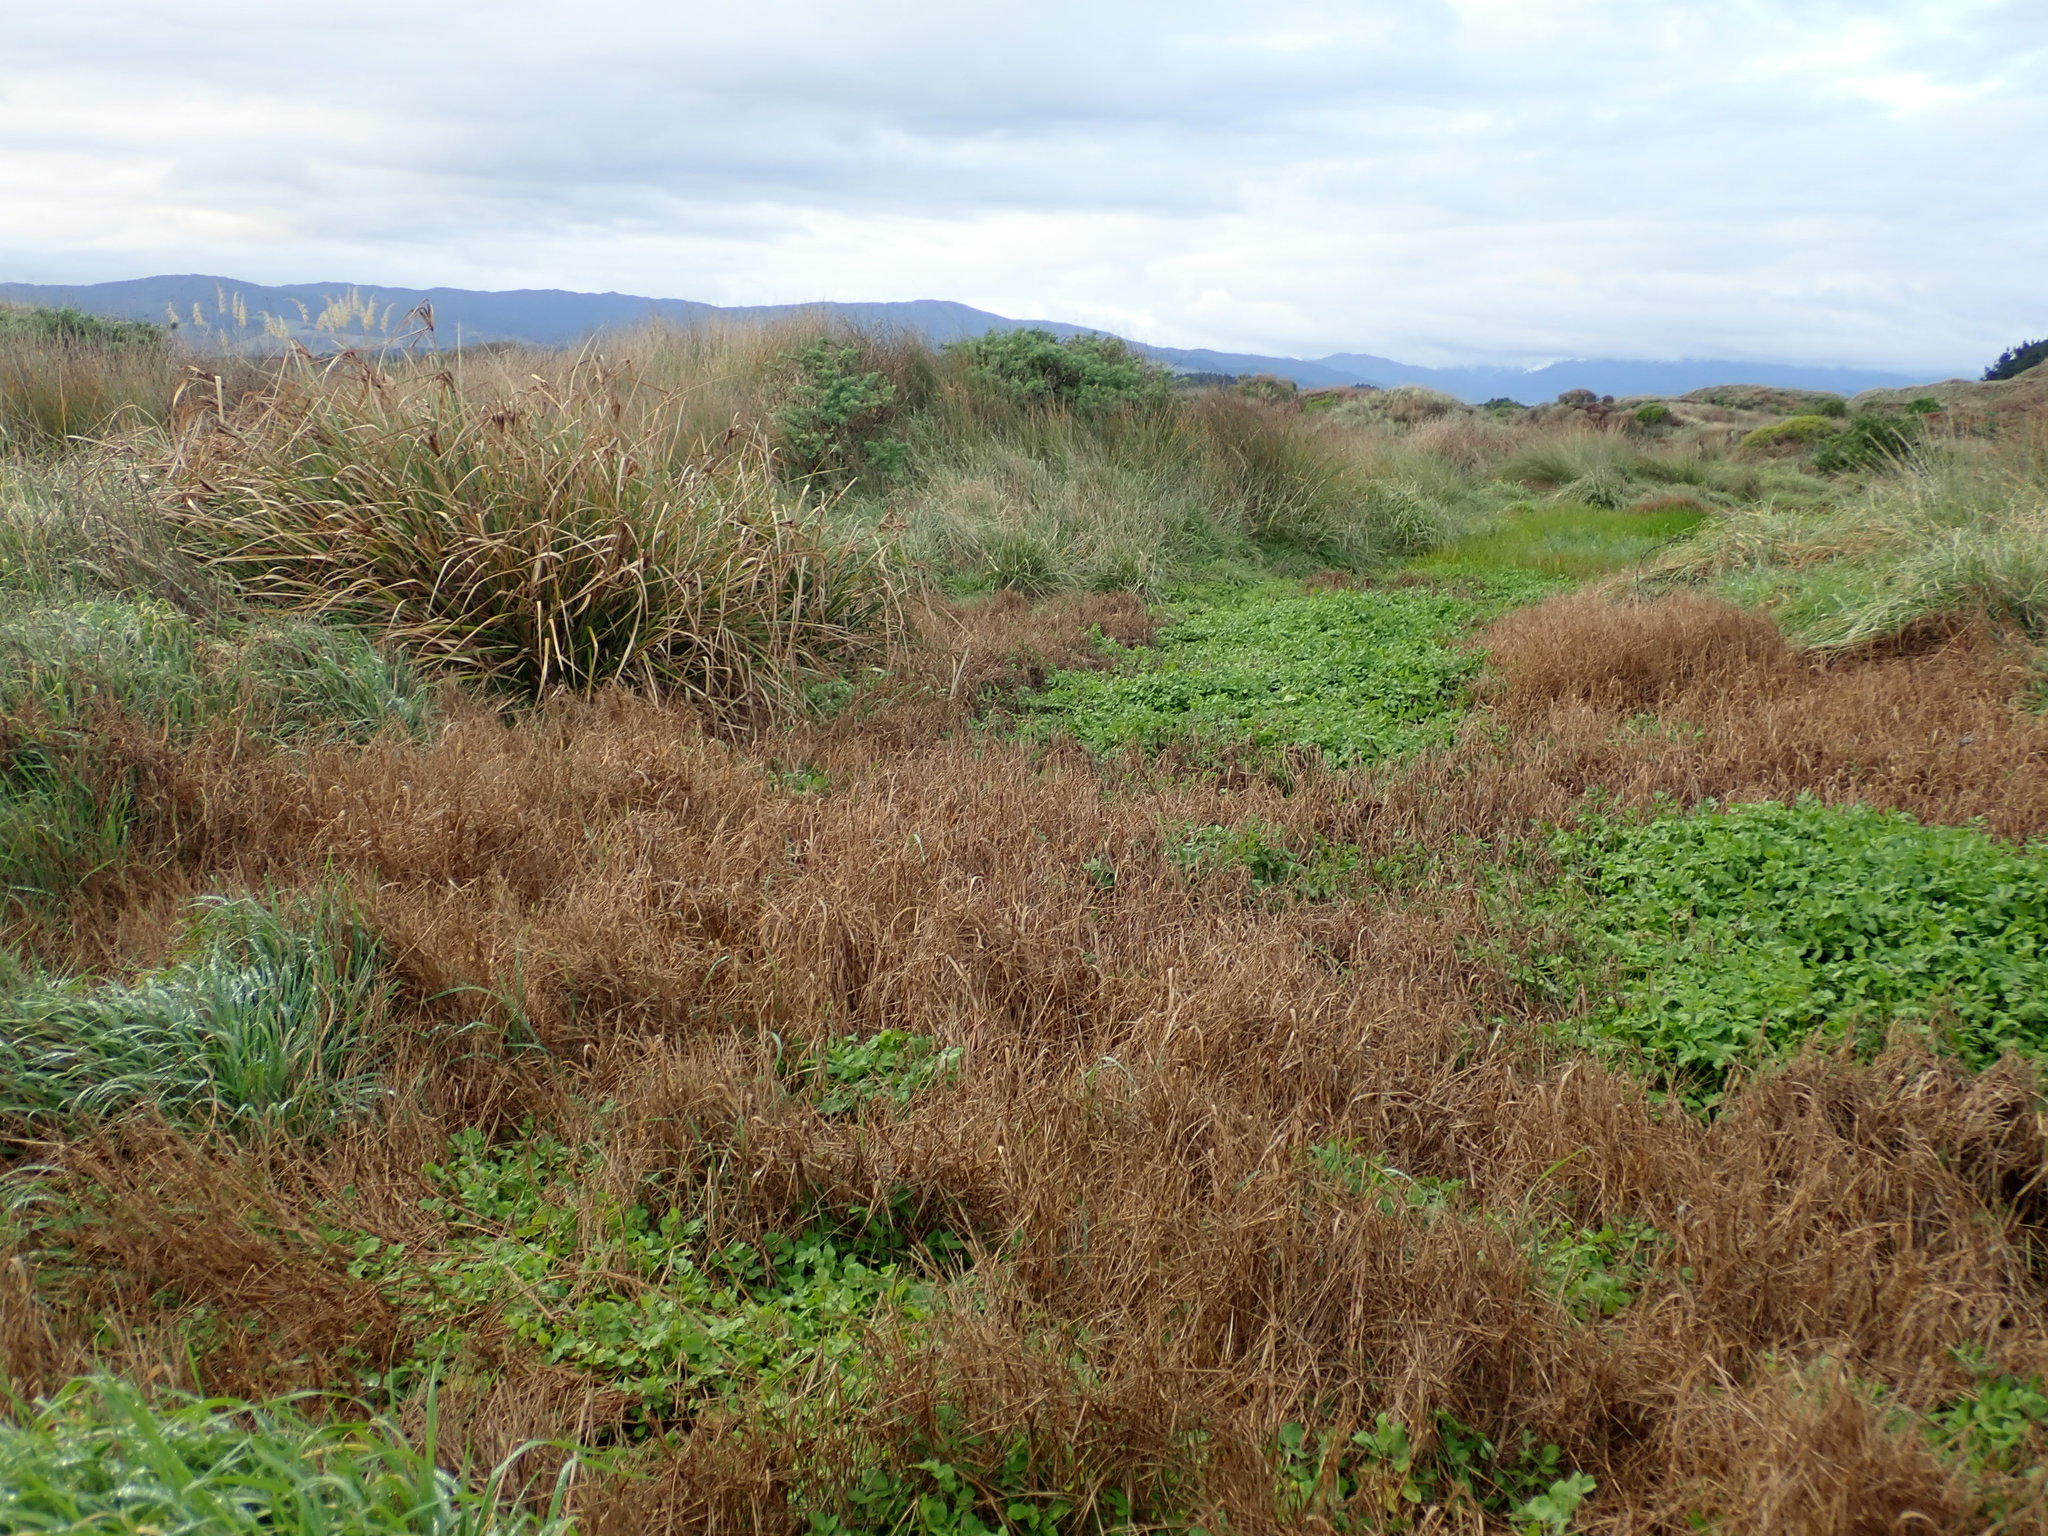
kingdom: Plantae
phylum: Tracheophyta
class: Liliopsida
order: Poales
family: Cyperaceae
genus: Cyperus
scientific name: Cyperus ustulatus
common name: Giant umbrella-sedge
